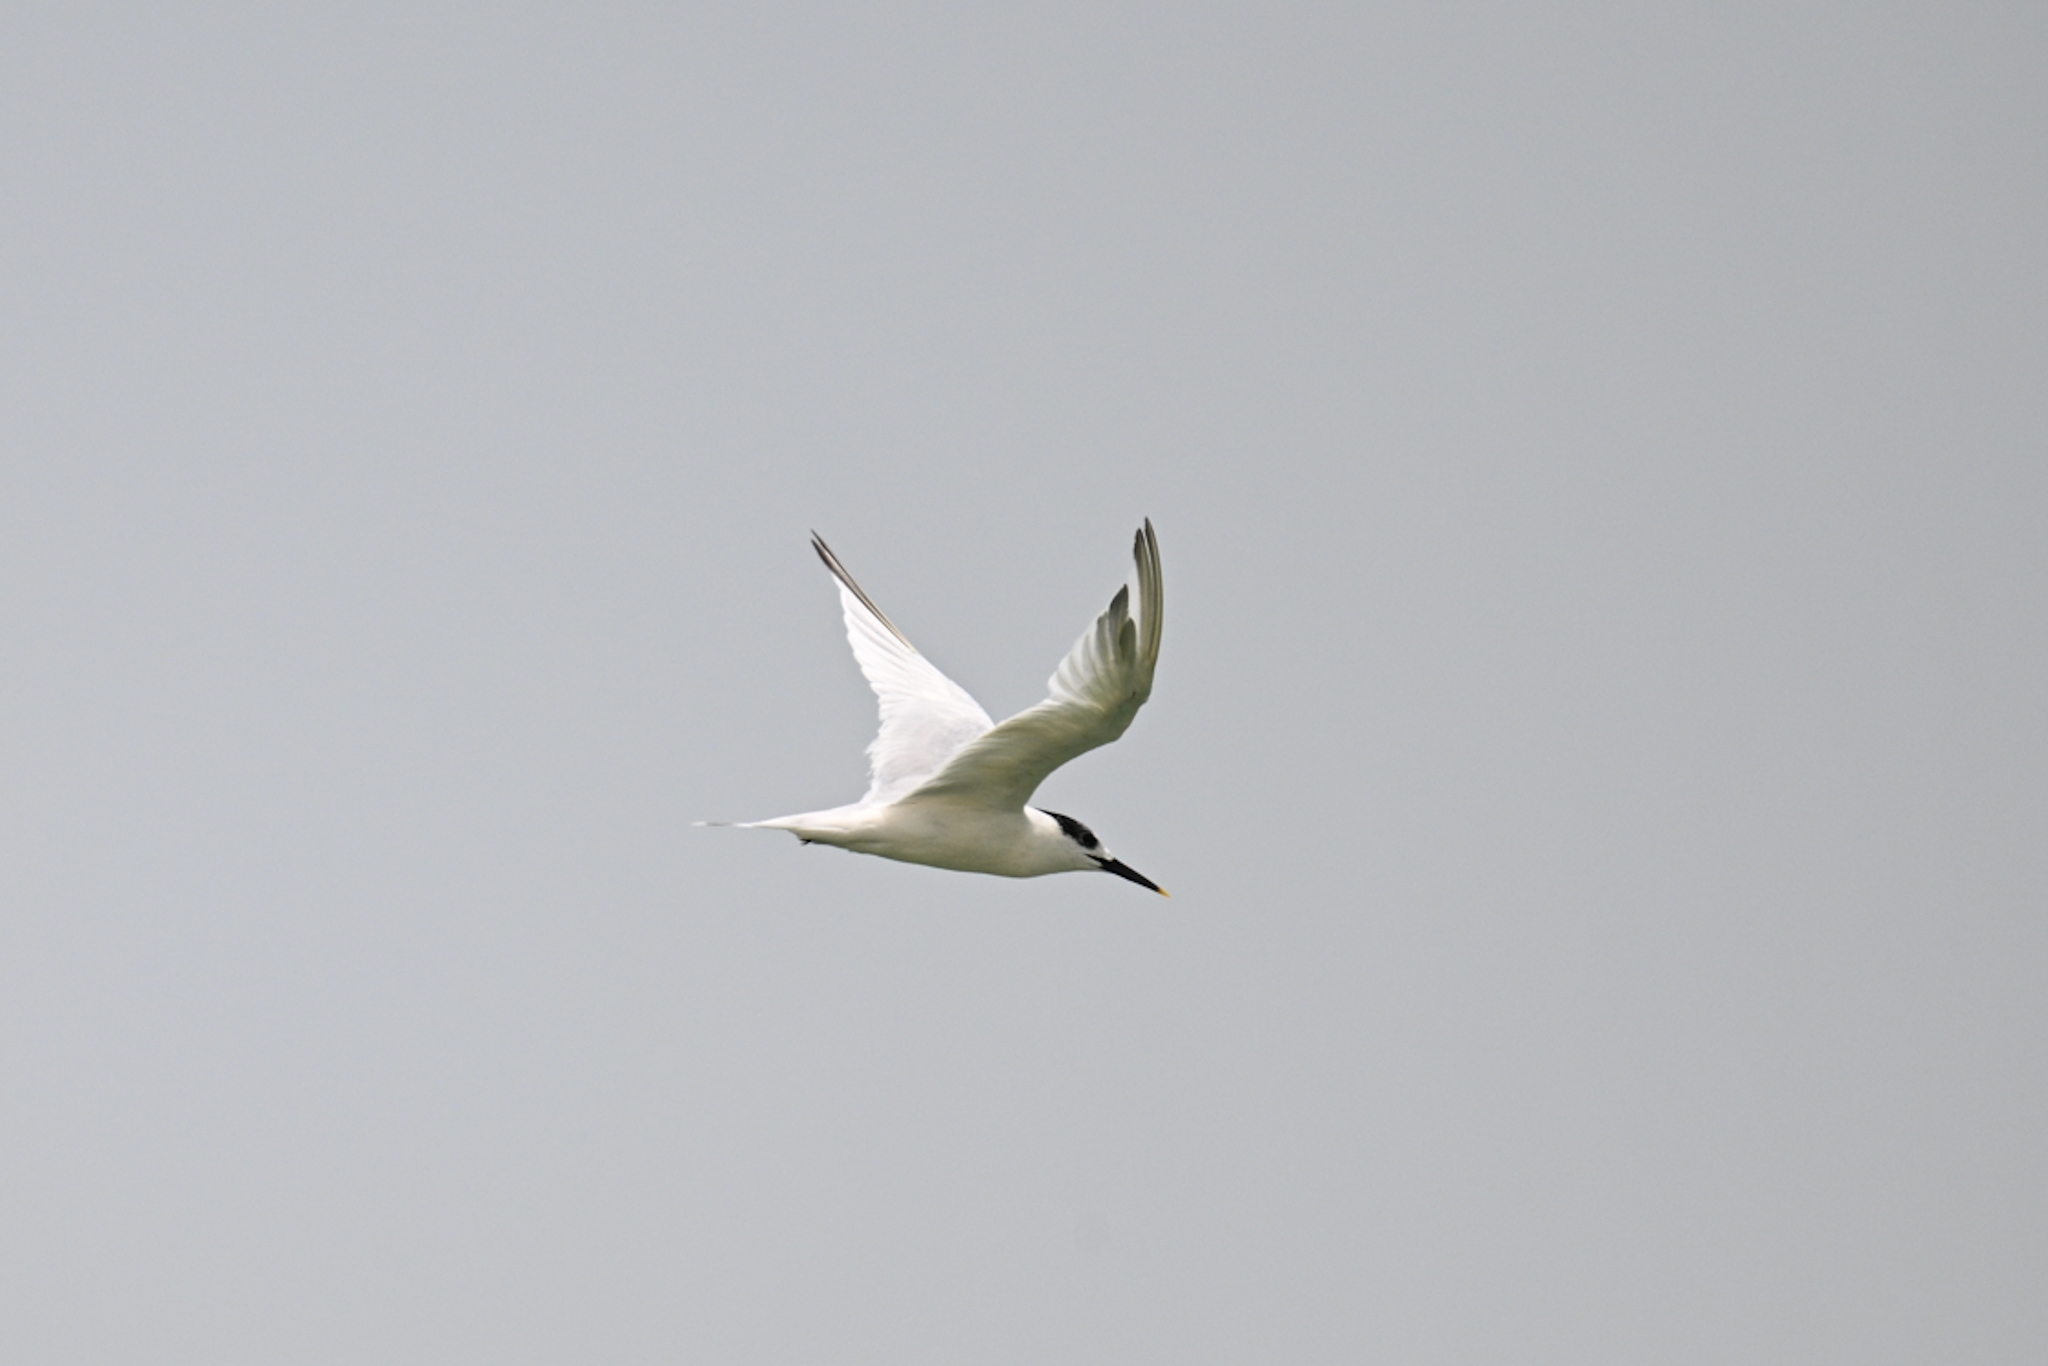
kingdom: Animalia
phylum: Chordata
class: Aves
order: Charadriiformes
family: Laridae
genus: Thalasseus
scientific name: Thalasseus sandvicensis
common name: Sandwich tern
